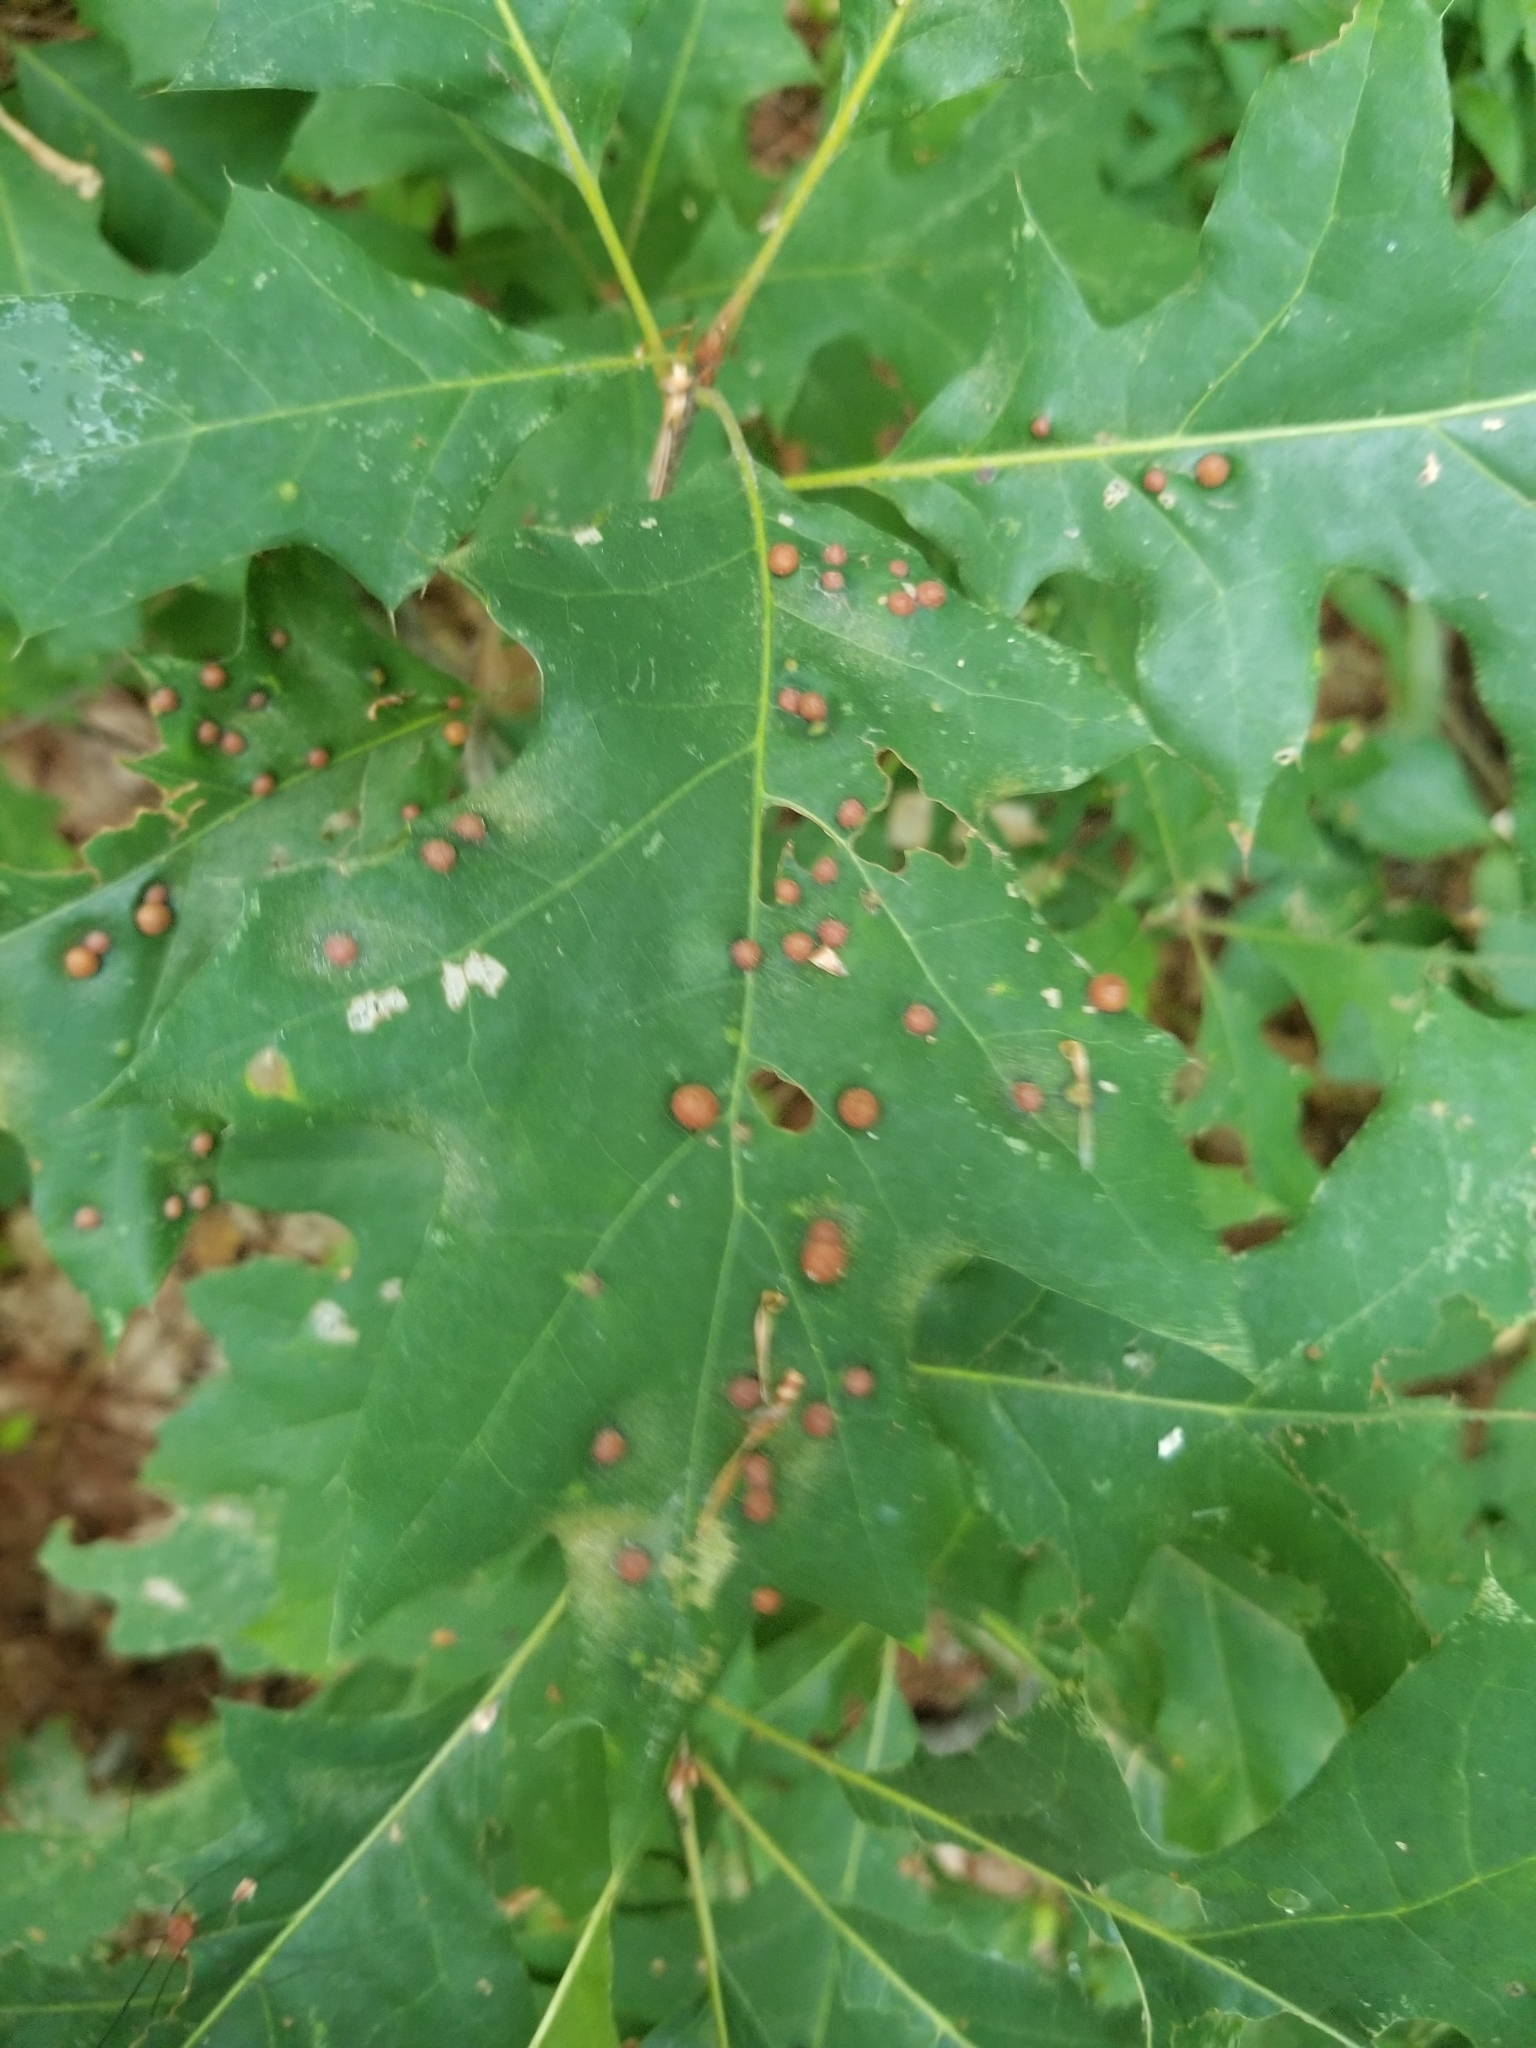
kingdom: Animalia
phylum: Arthropoda
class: Insecta
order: Diptera
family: Cecidomyiidae
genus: Polystepha
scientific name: Polystepha pilulae
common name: Oak leaf gall midge
